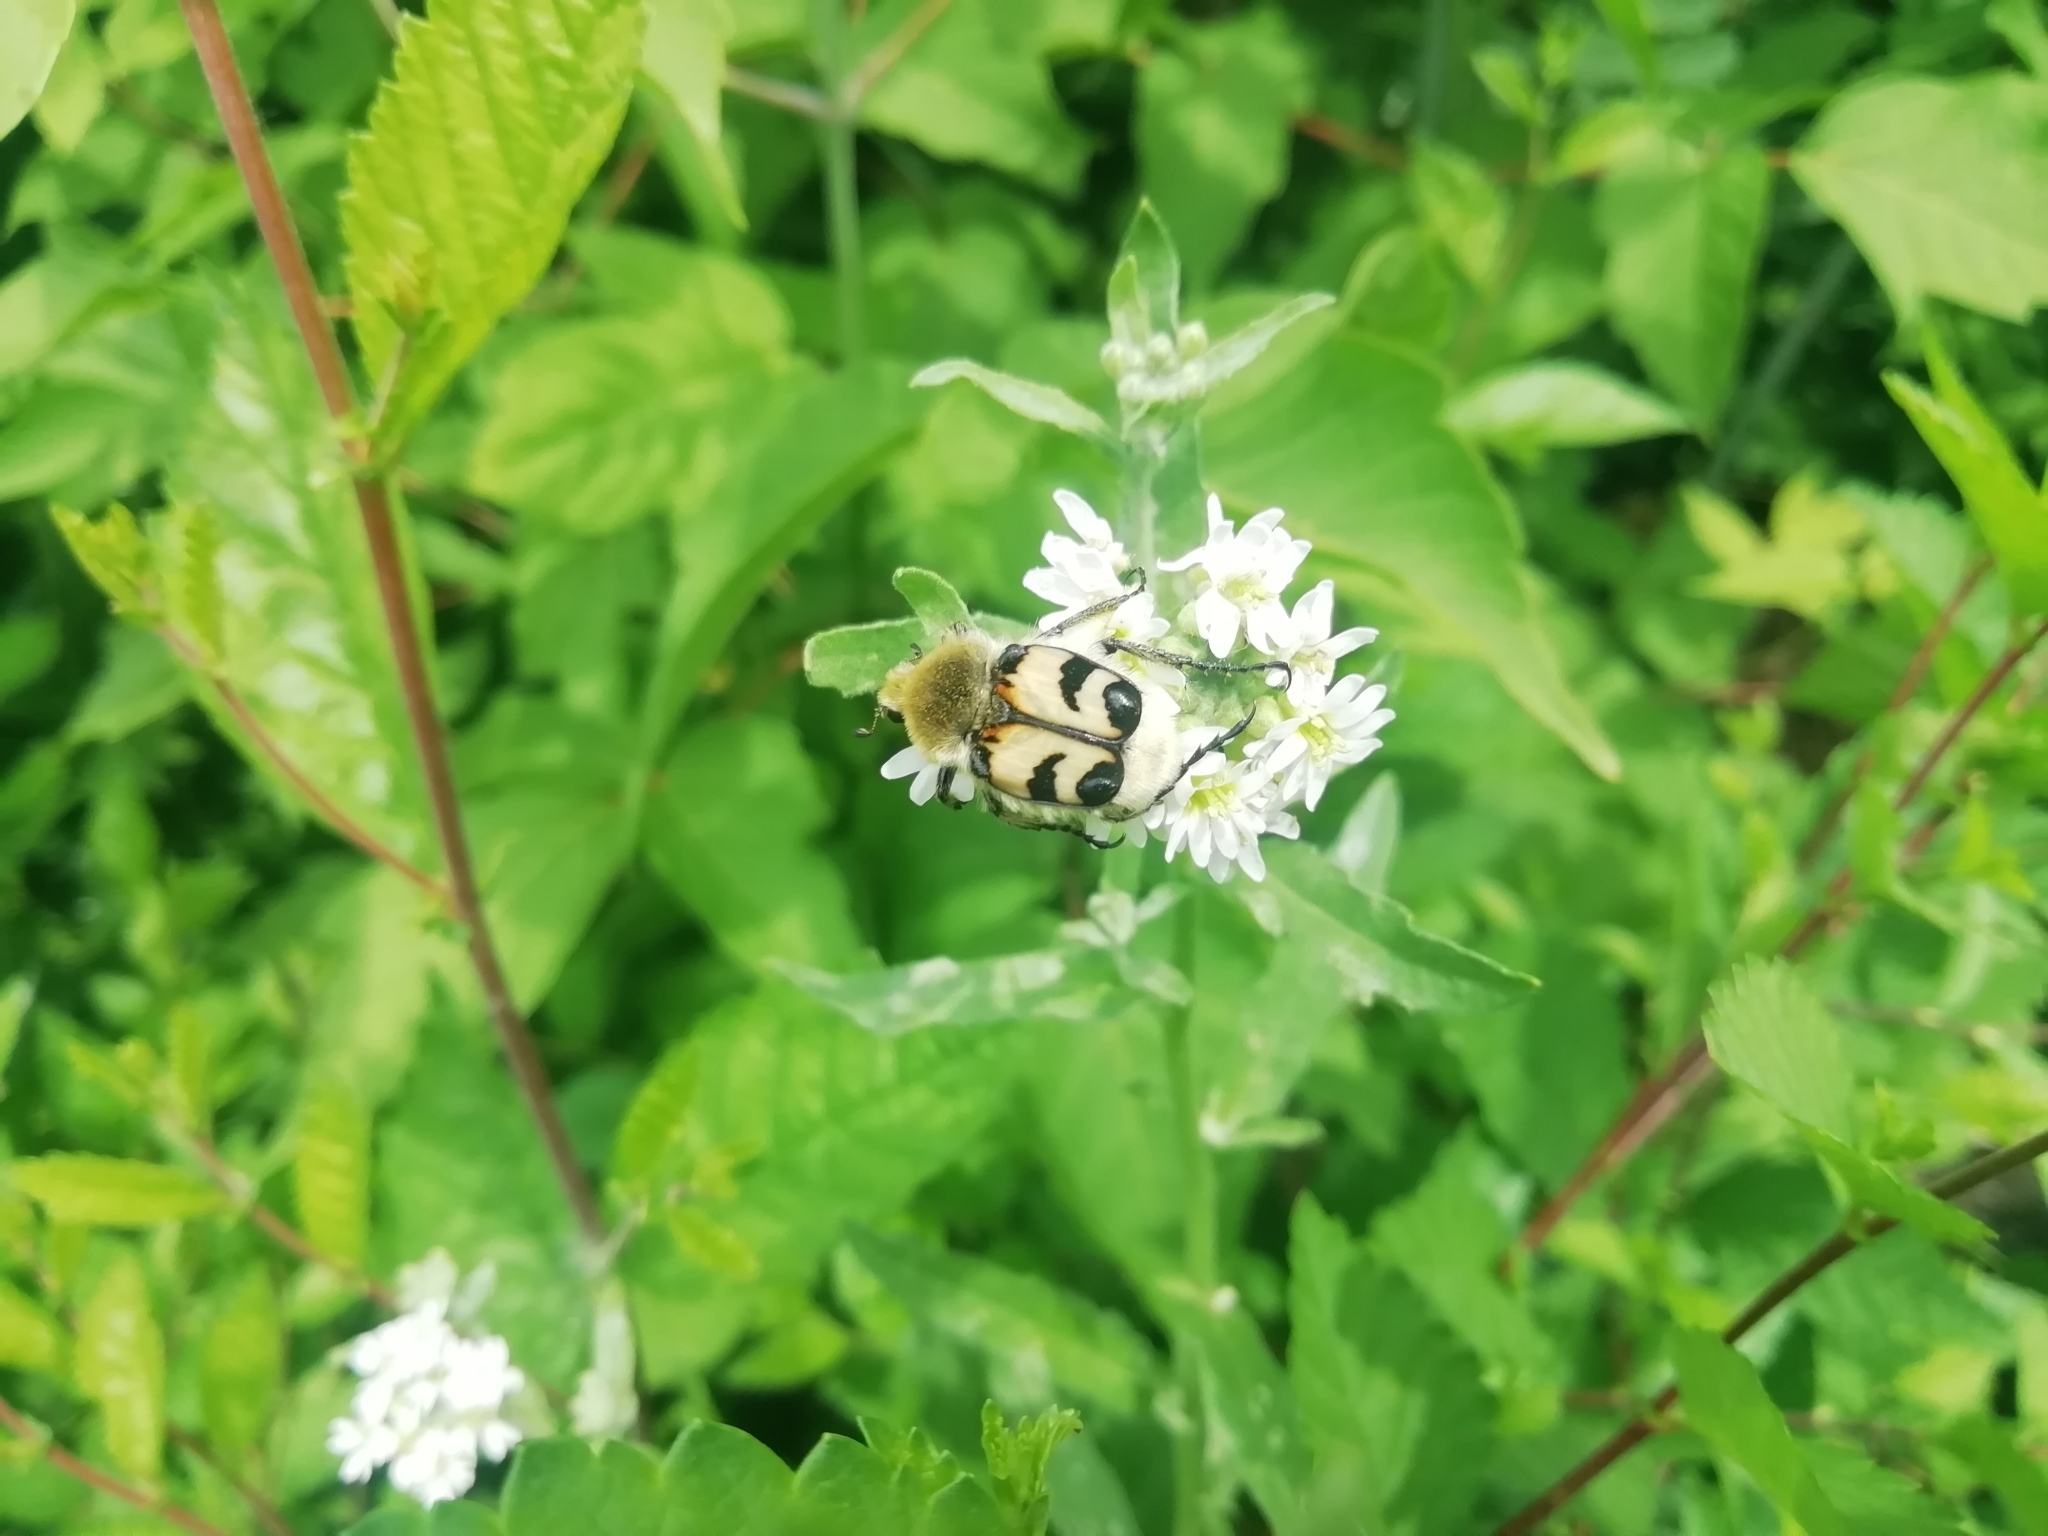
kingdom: Animalia
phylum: Arthropoda
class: Insecta
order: Coleoptera
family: Scarabaeidae
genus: Trichius
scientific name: Trichius fasciatus
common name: Bee beetle
